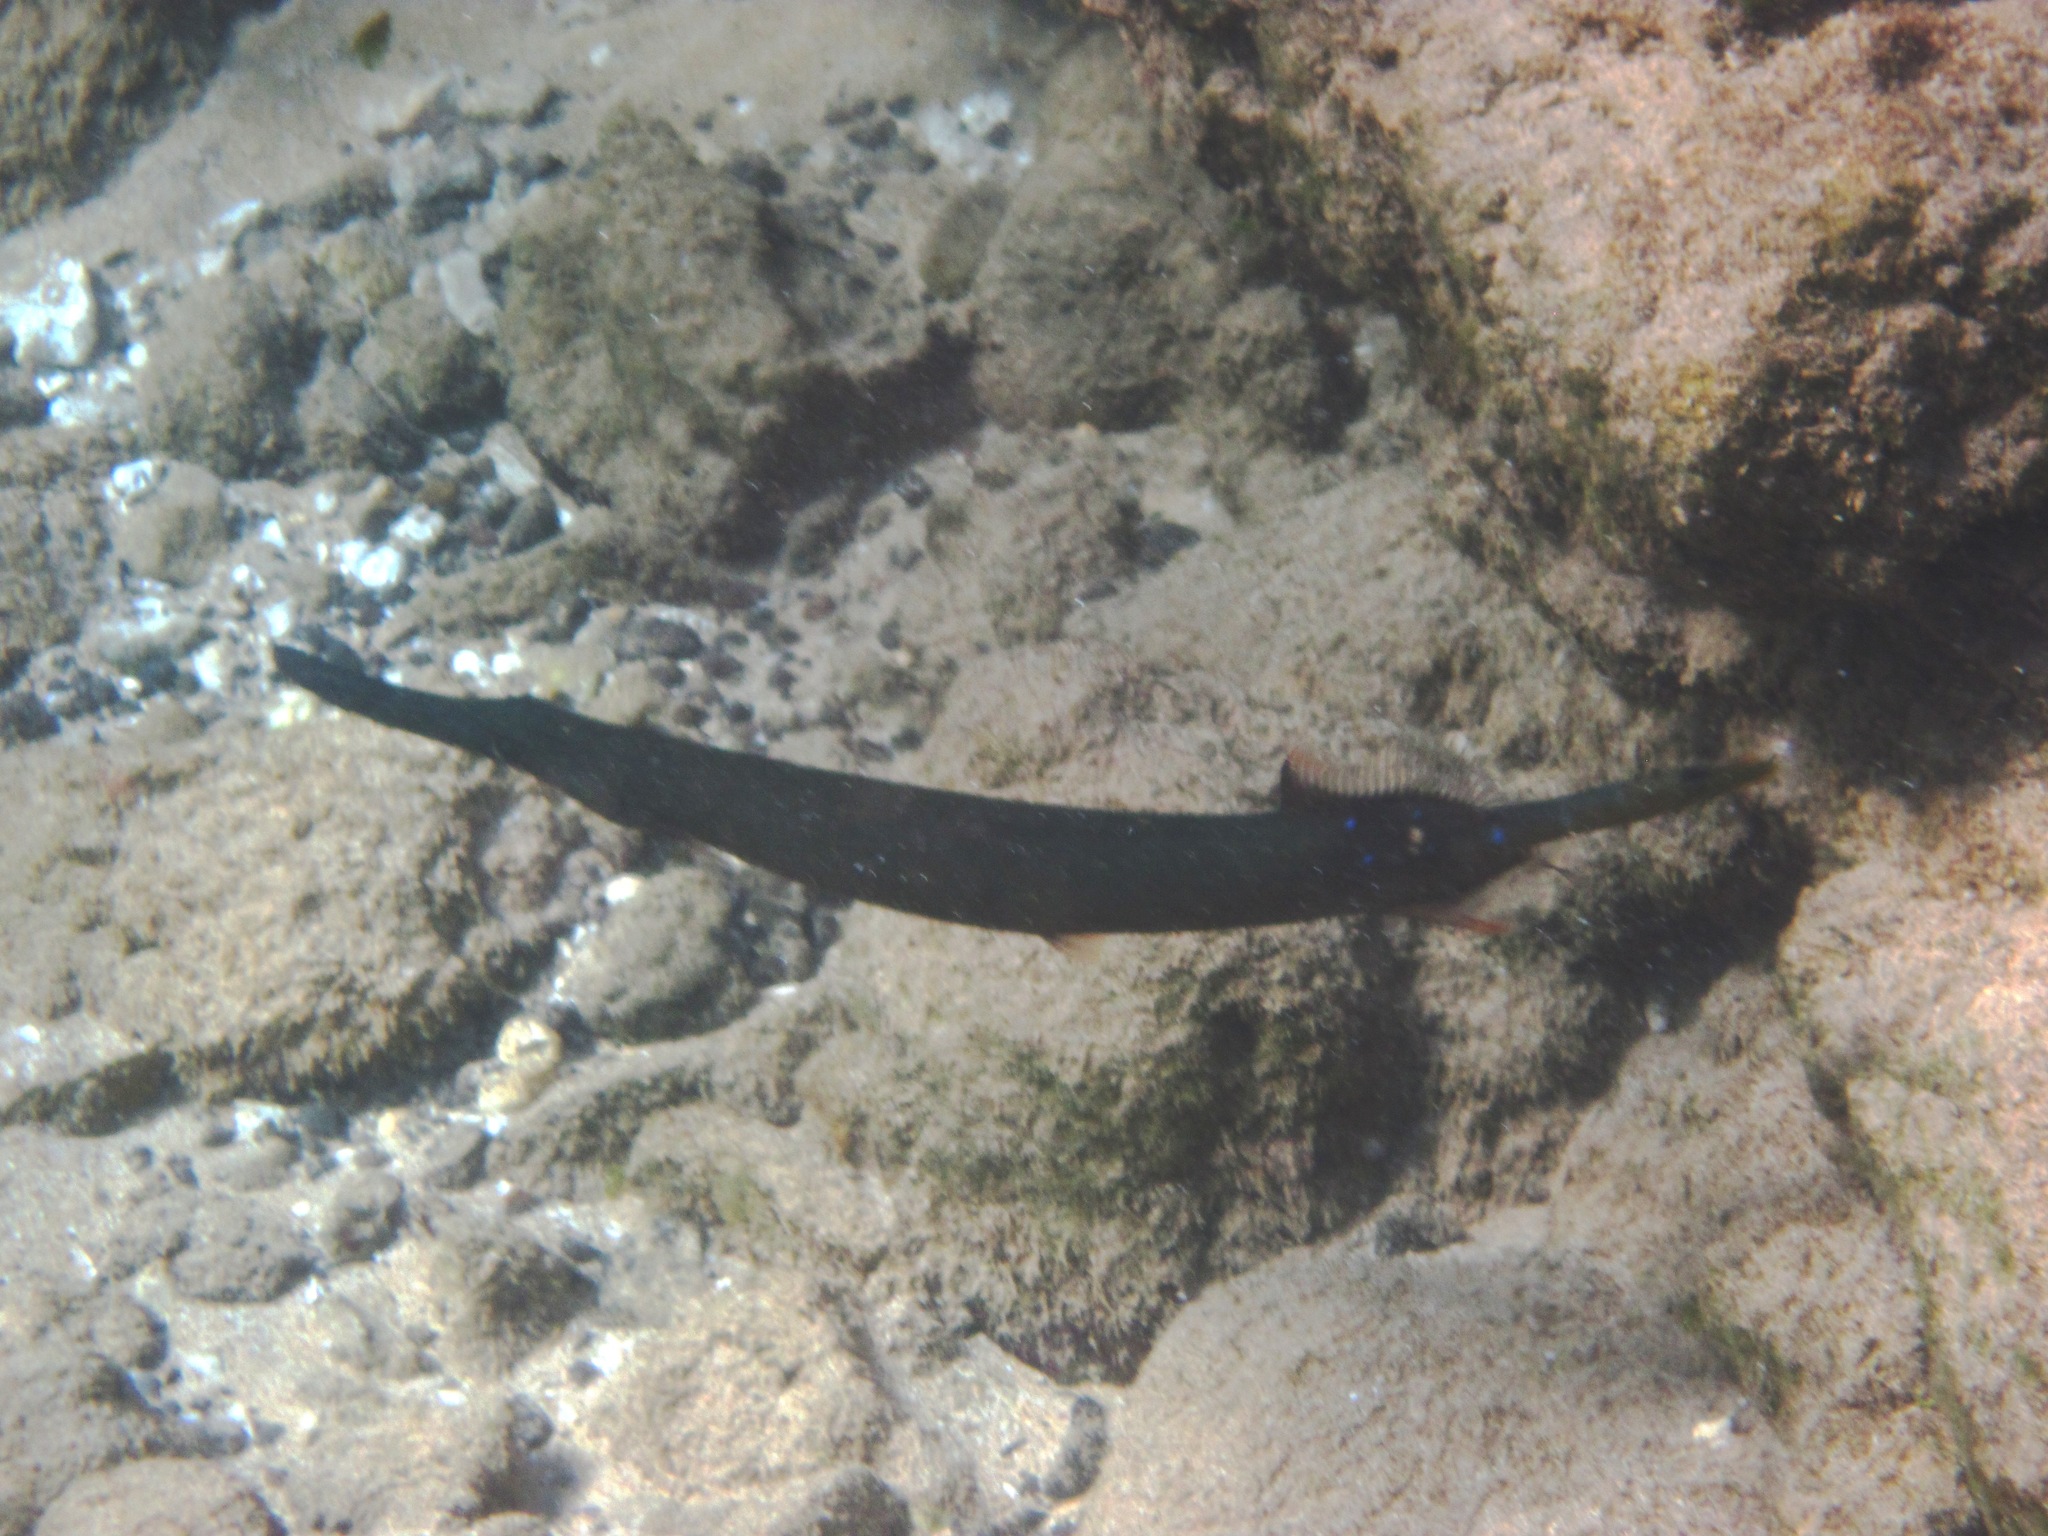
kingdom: Animalia
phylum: Chordata
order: Syngnathiformes
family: Aulostomidae
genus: Aulostomus
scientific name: Aulostomus chinensis
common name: Chinese trumpetfish
